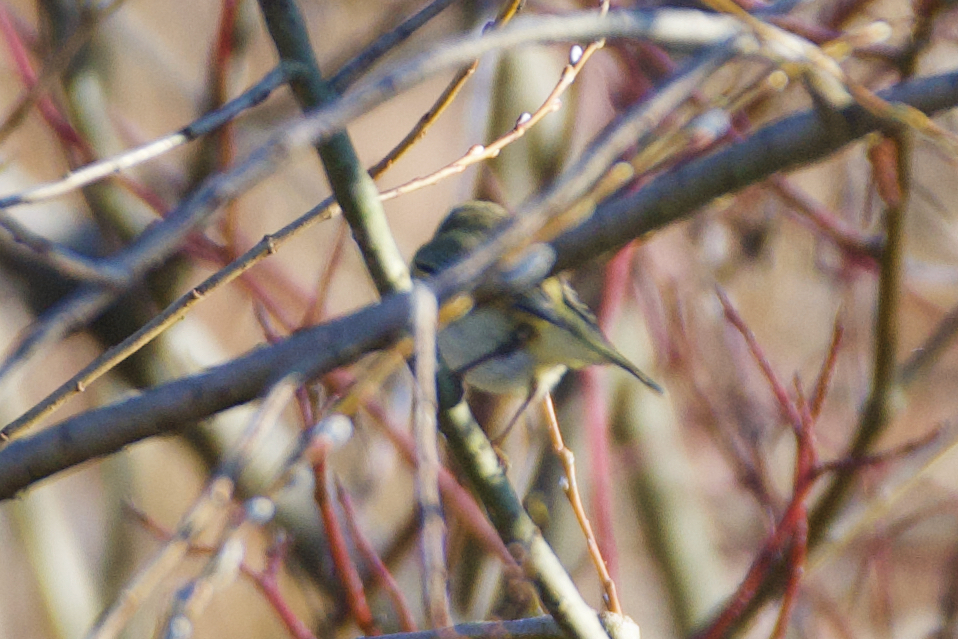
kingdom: Animalia
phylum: Chordata
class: Aves
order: Passeriformes
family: Phylloscopidae
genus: Phylloscopus
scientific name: Phylloscopus collybita
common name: Common chiffchaff
